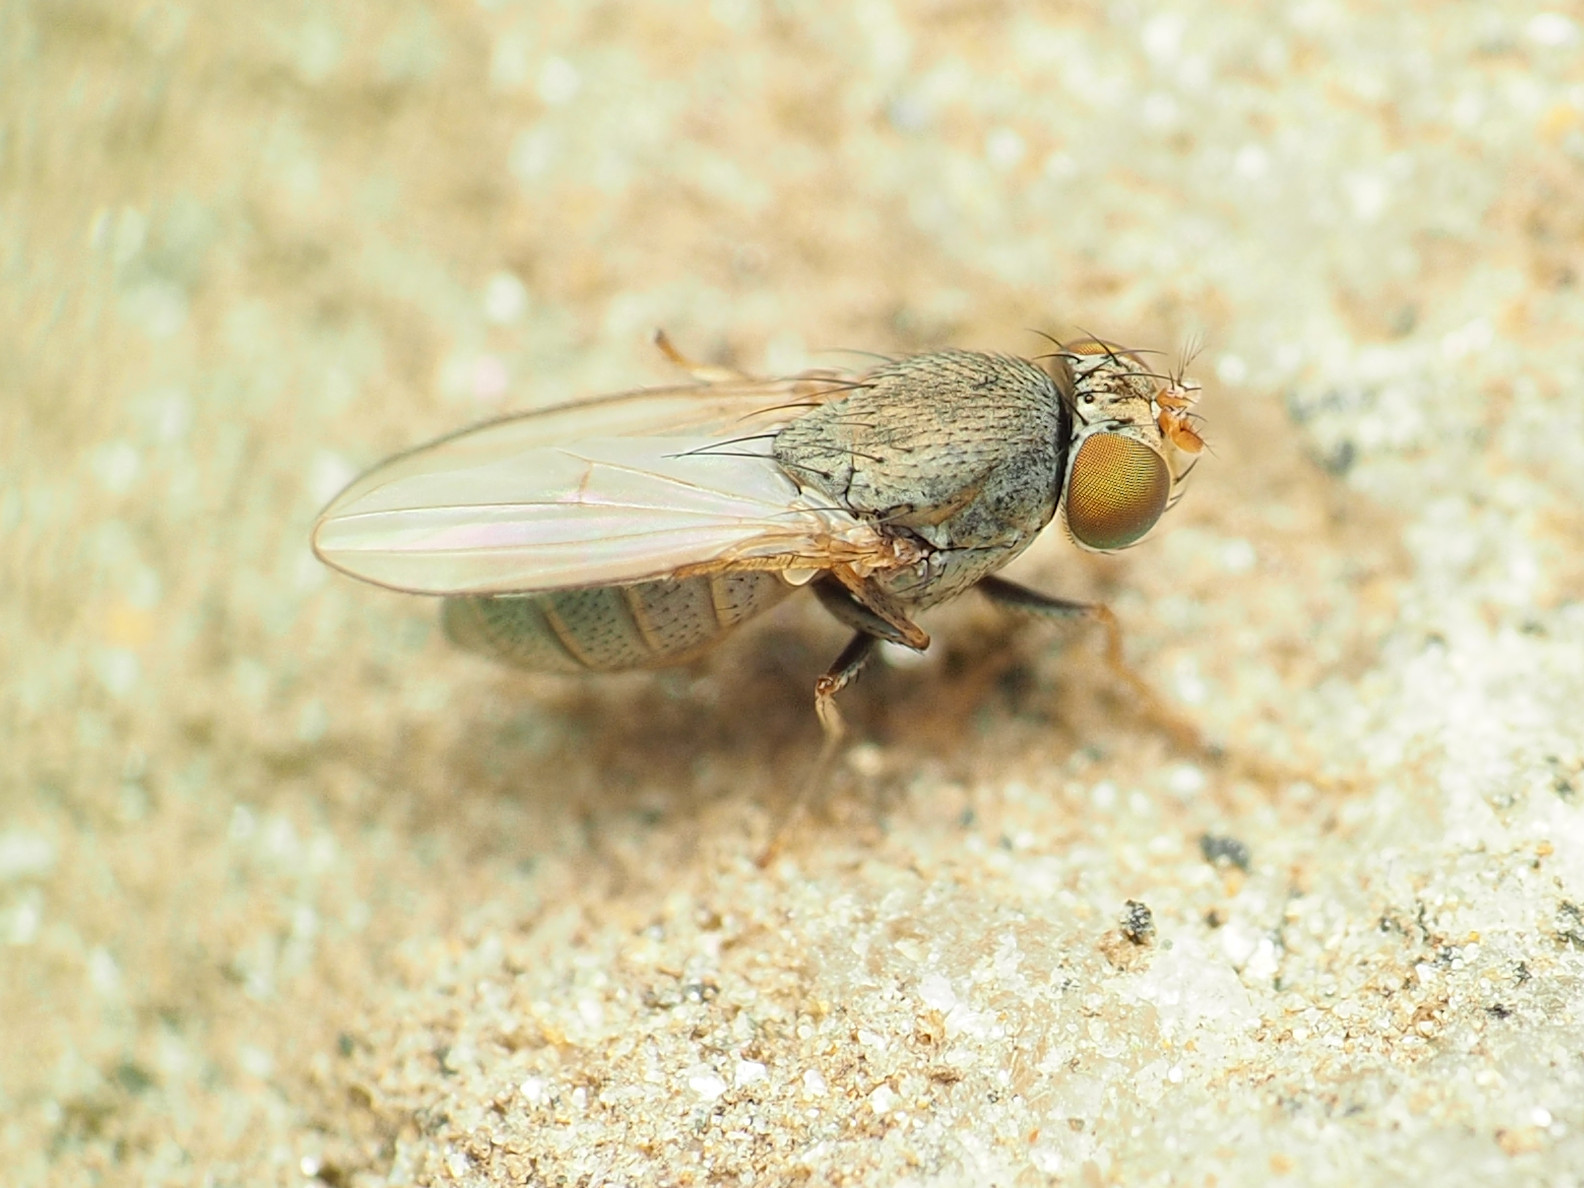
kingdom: Animalia
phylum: Arthropoda
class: Insecta
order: Diptera
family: Ephydridae
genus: Diclasiopa
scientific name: Diclasiopa lacteipennis
